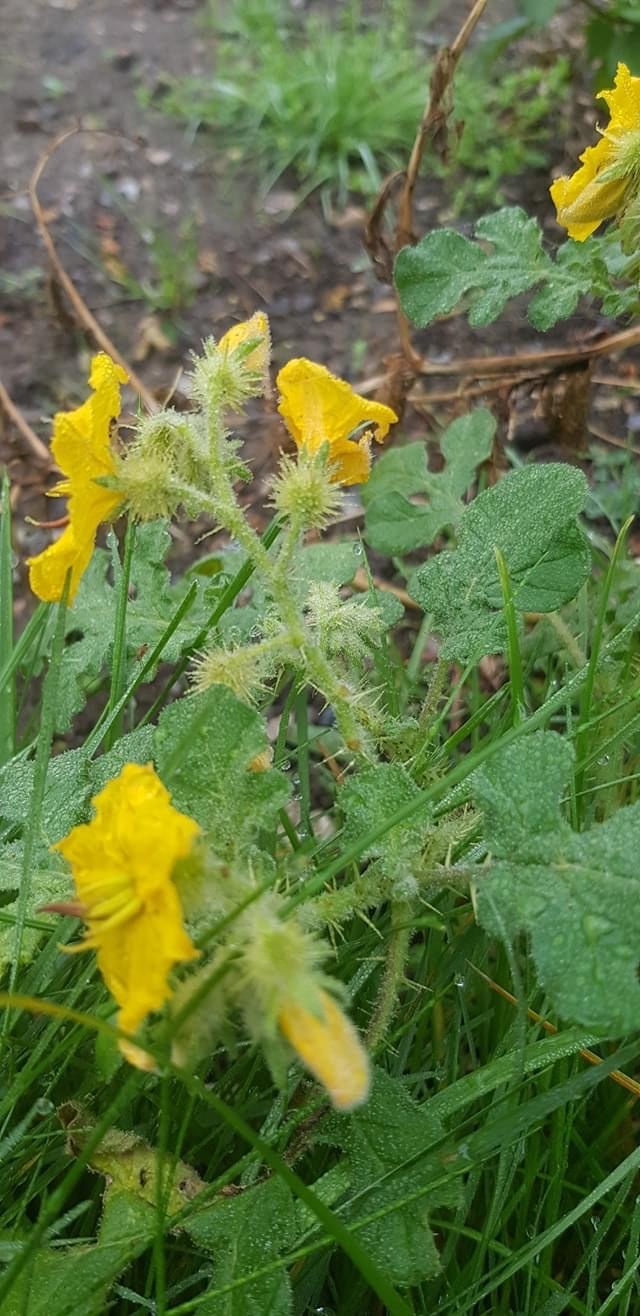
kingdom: Plantae
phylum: Tracheophyta
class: Magnoliopsida
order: Solanales
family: Solanaceae
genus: Solanum
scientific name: Solanum angustifolium
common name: Buffalobur nightshade
